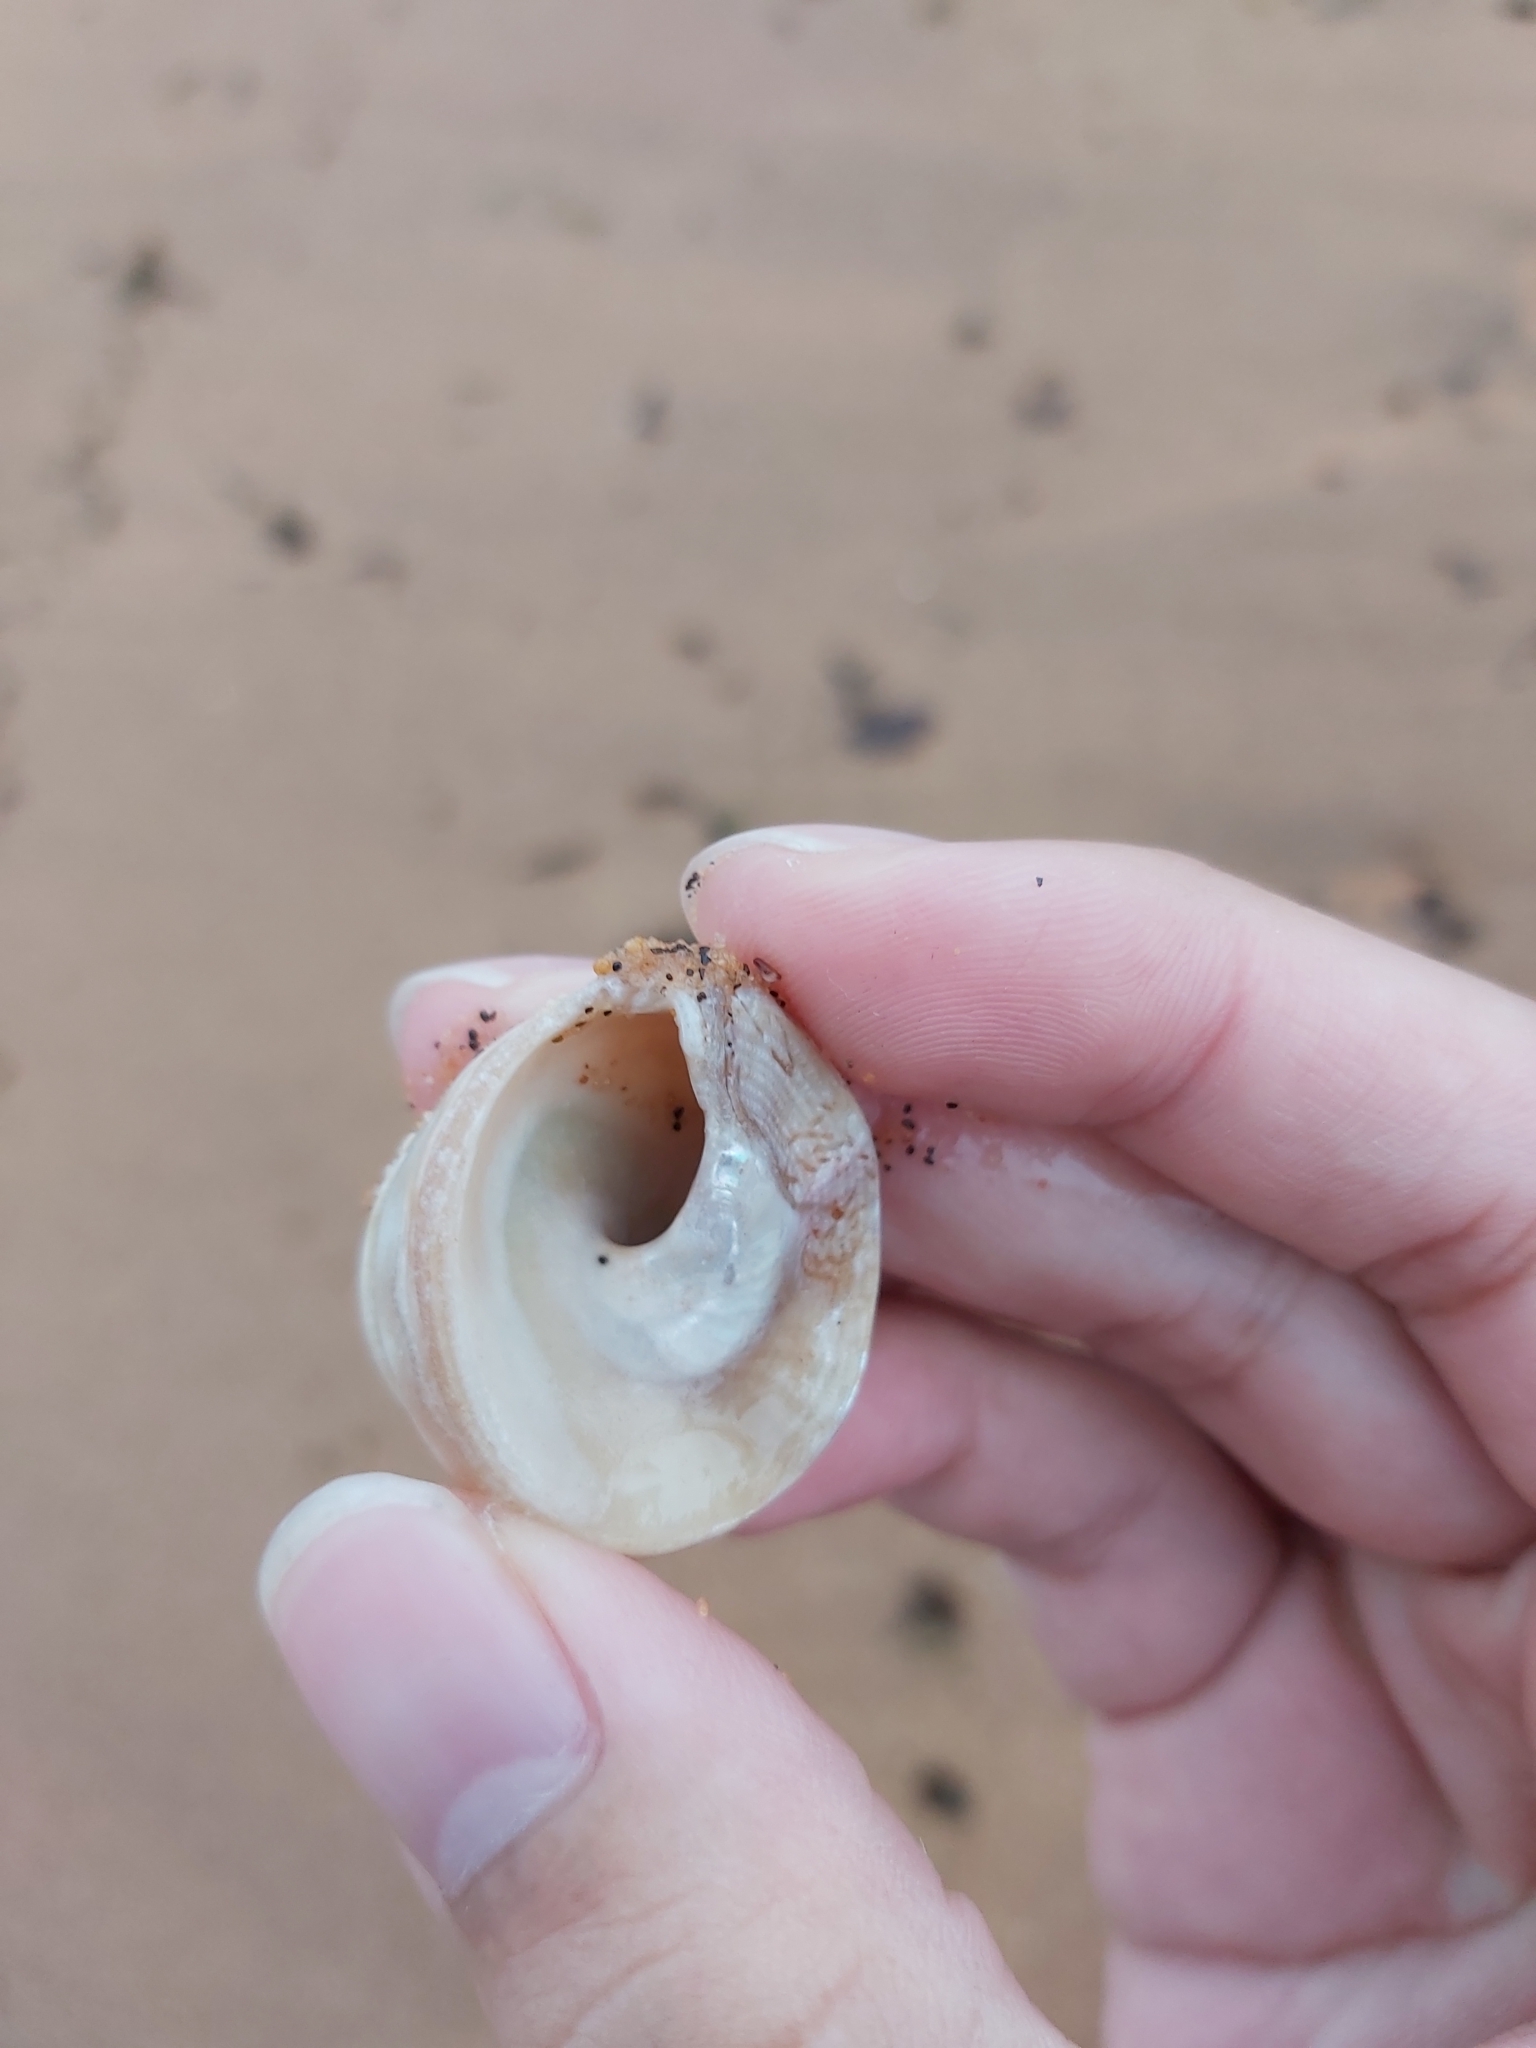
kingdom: Animalia
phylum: Mollusca
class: Gastropoda
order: Trochida
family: Turbinidae
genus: Astralium
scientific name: Astralium tentoriiforme
